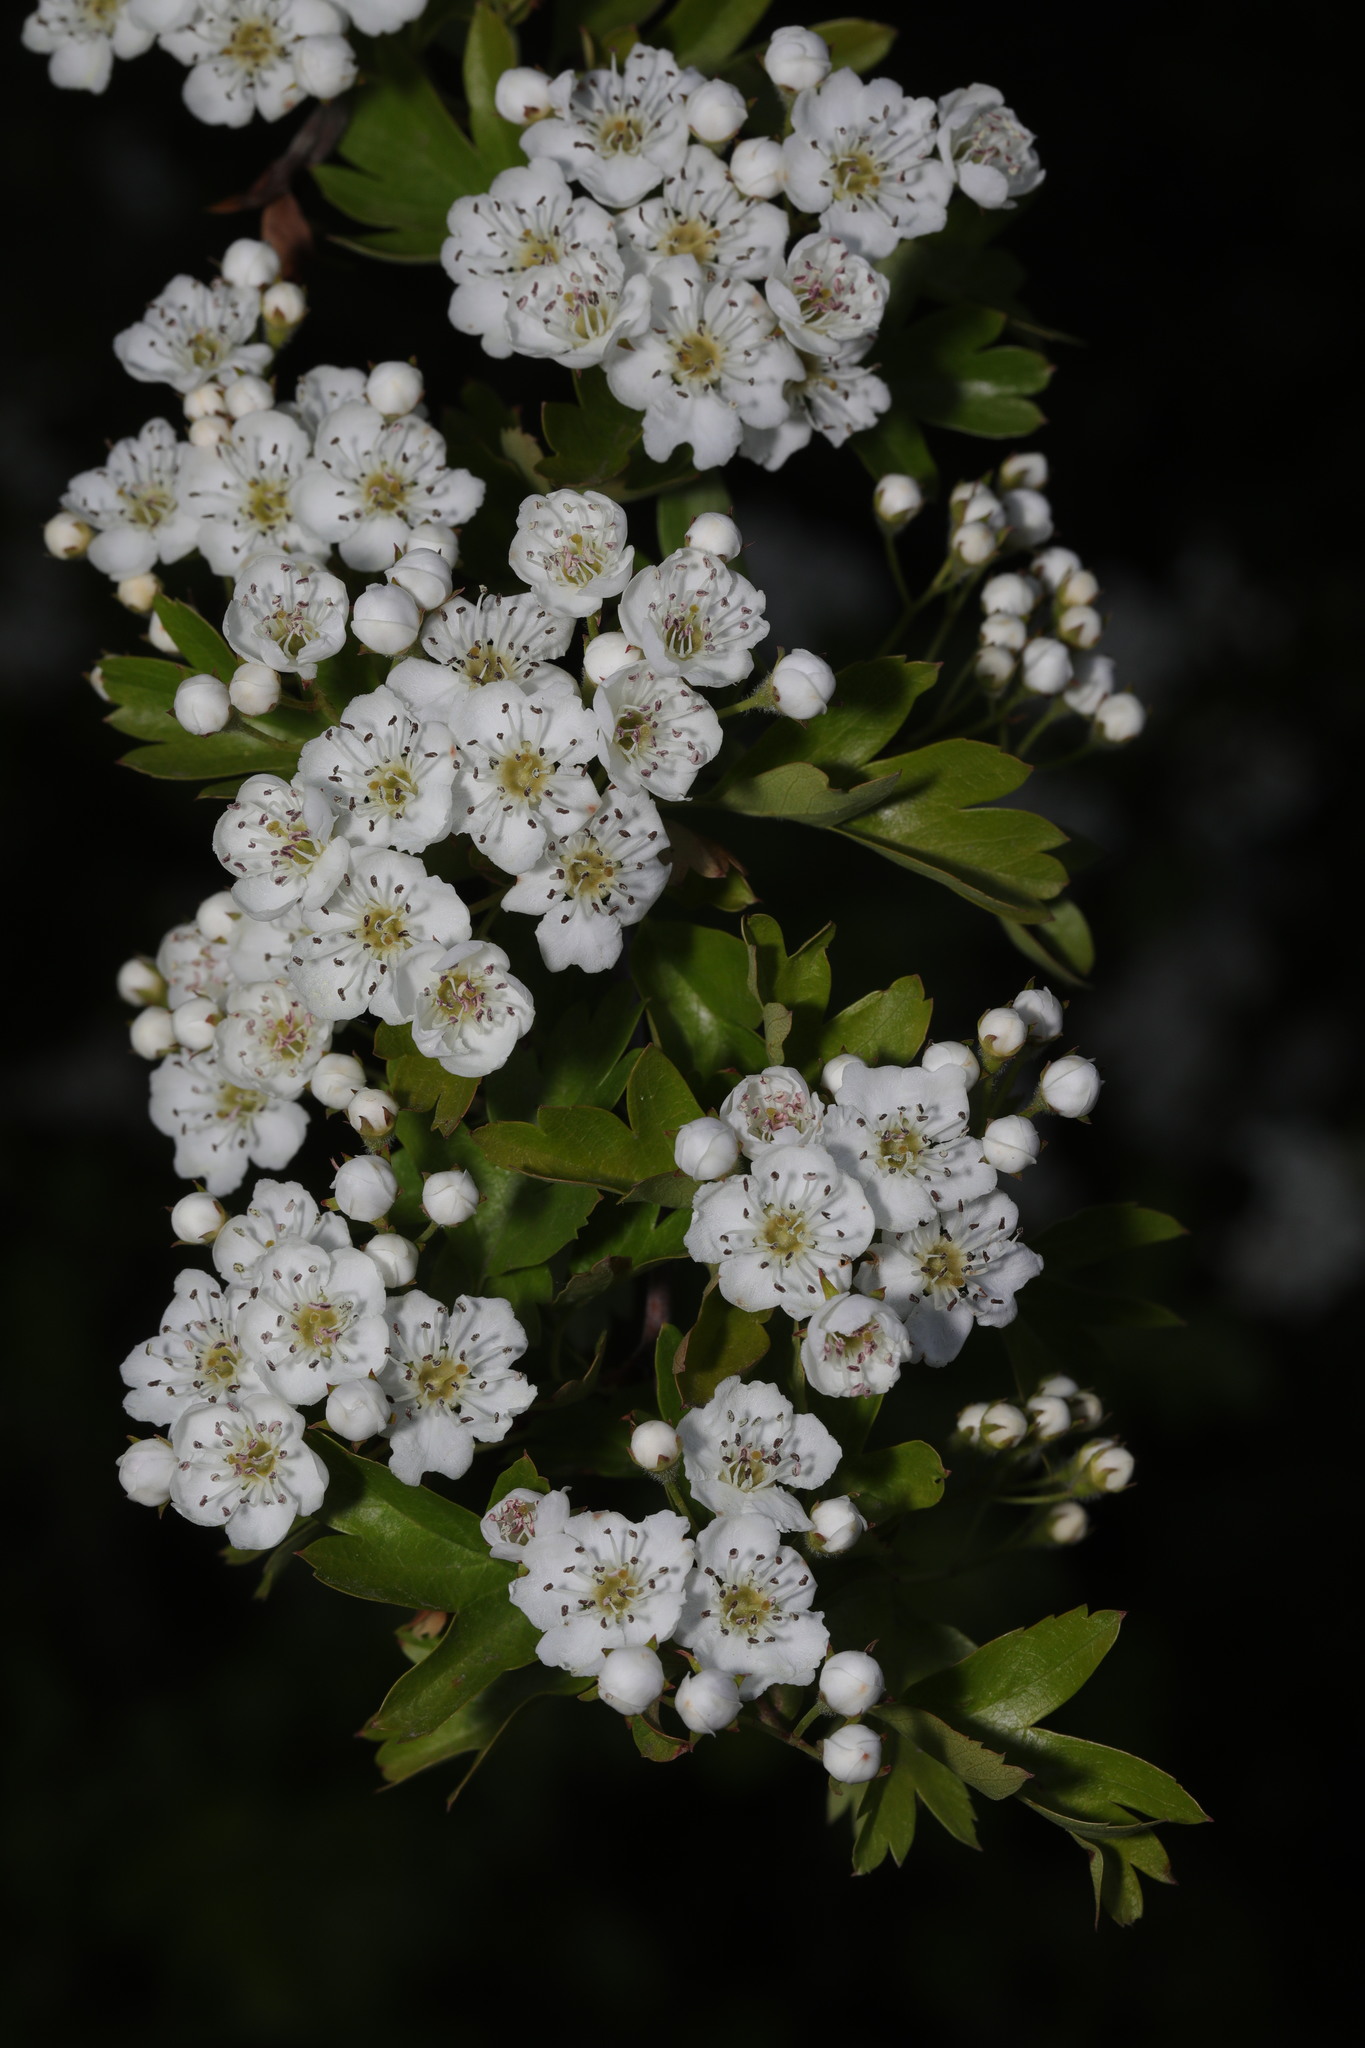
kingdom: Plantae
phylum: Tracheophyta
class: Magnoliopsida
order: Rosales
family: Rosaceae
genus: Crataegus
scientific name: Crataegus monogyna
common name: Hawthorn
